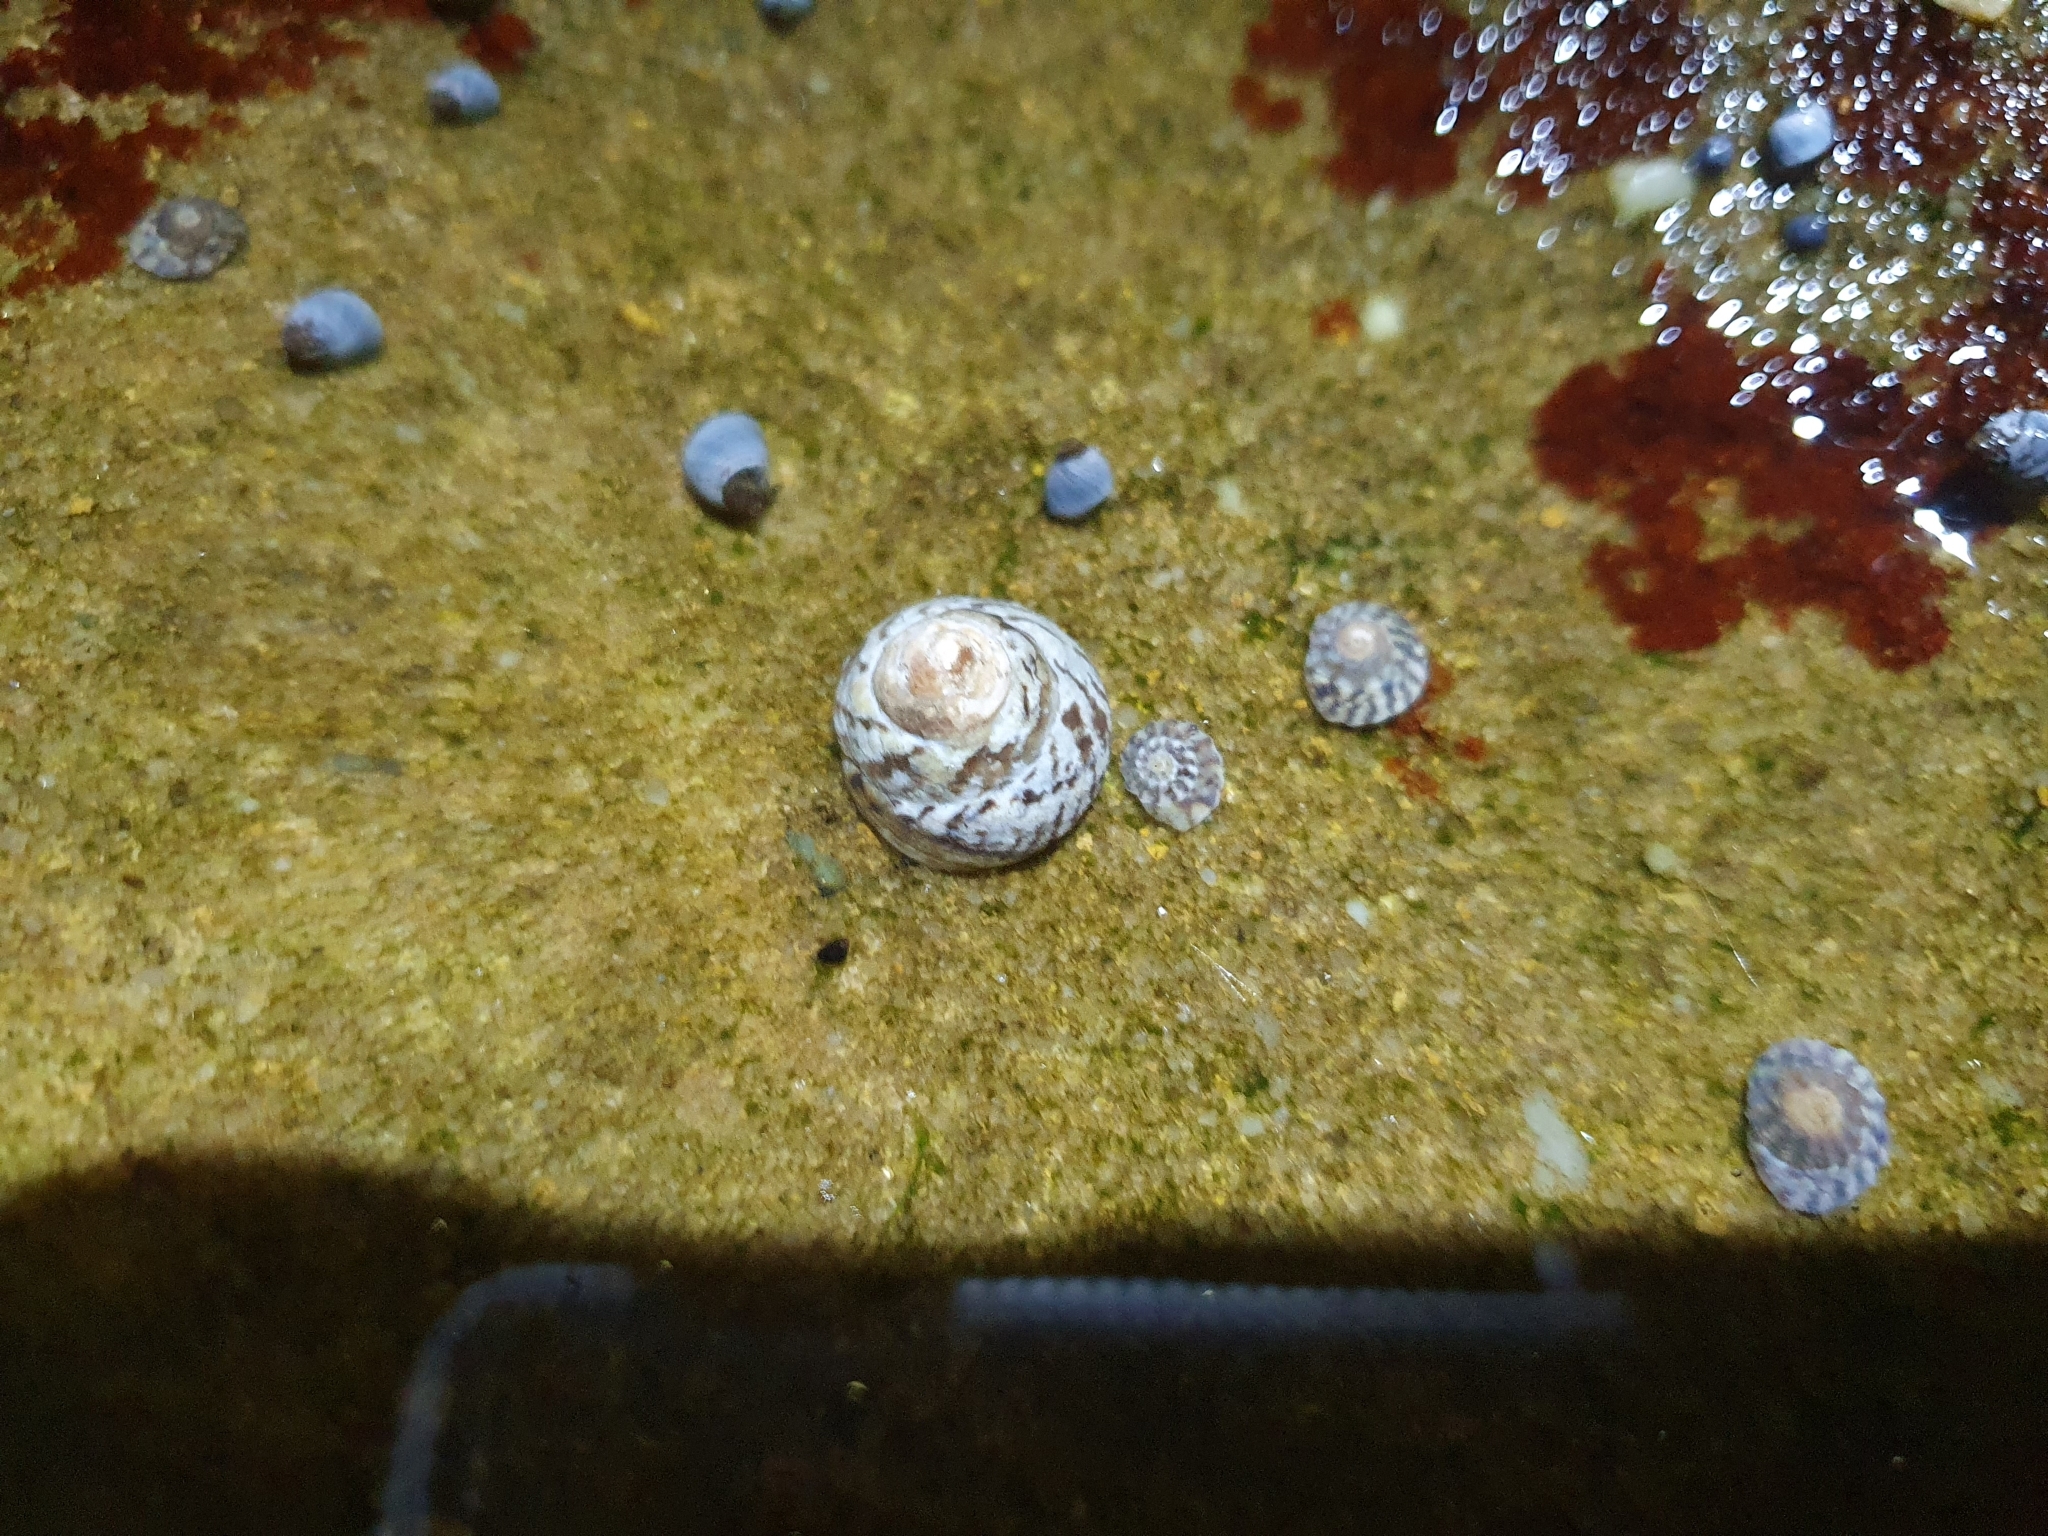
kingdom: Animalia
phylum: Mollusca
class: Gastropoda
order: Littorinimorpha
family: Littorinidae
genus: Bembicium
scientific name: Bembicium nanum
